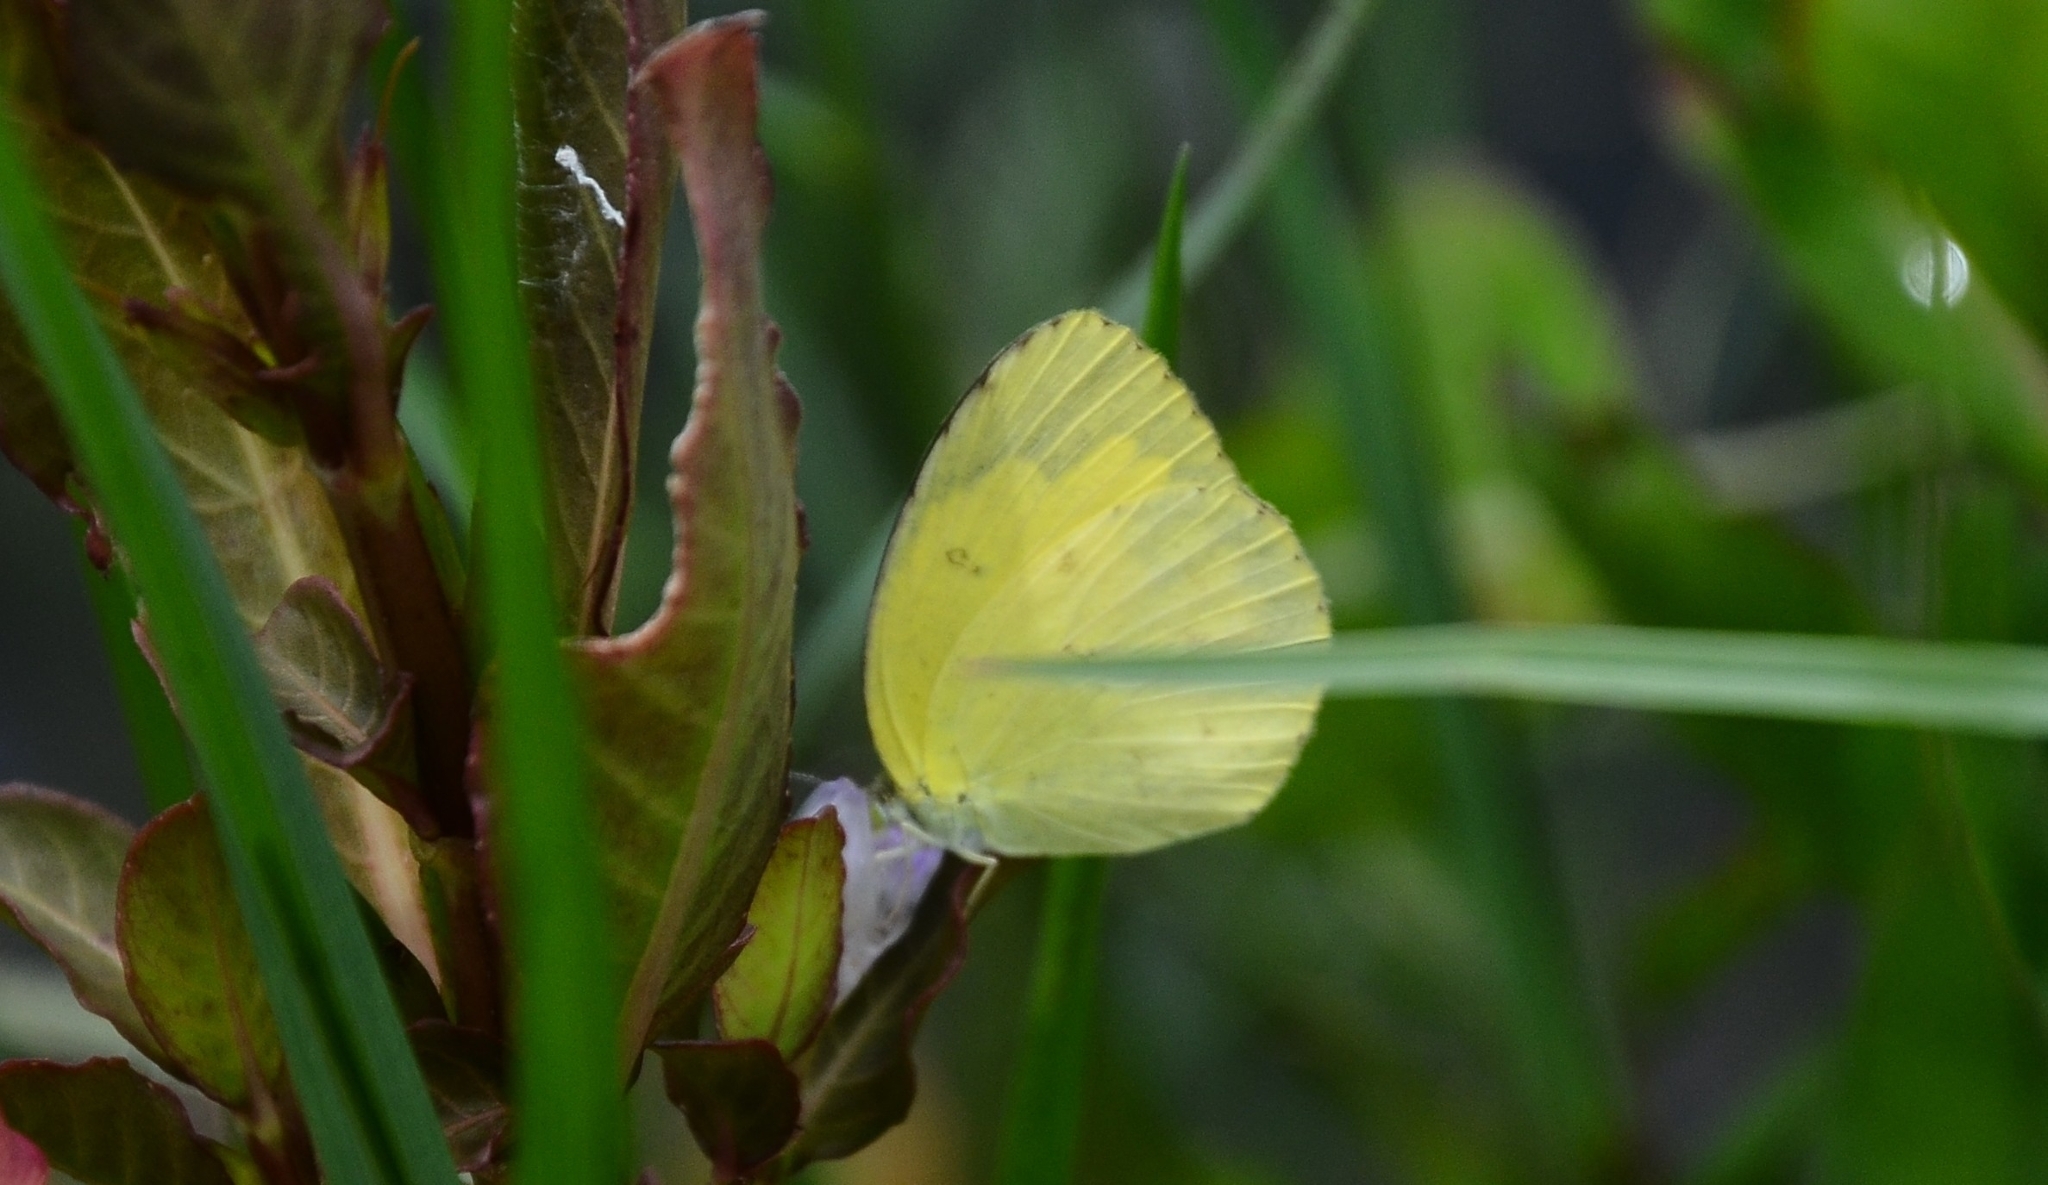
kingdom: Animalia
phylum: Arthropoda
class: Insecta
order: Lepidoptera
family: Pieridae
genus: Eurema
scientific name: Eurema hecabe
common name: Pale grass yellow
